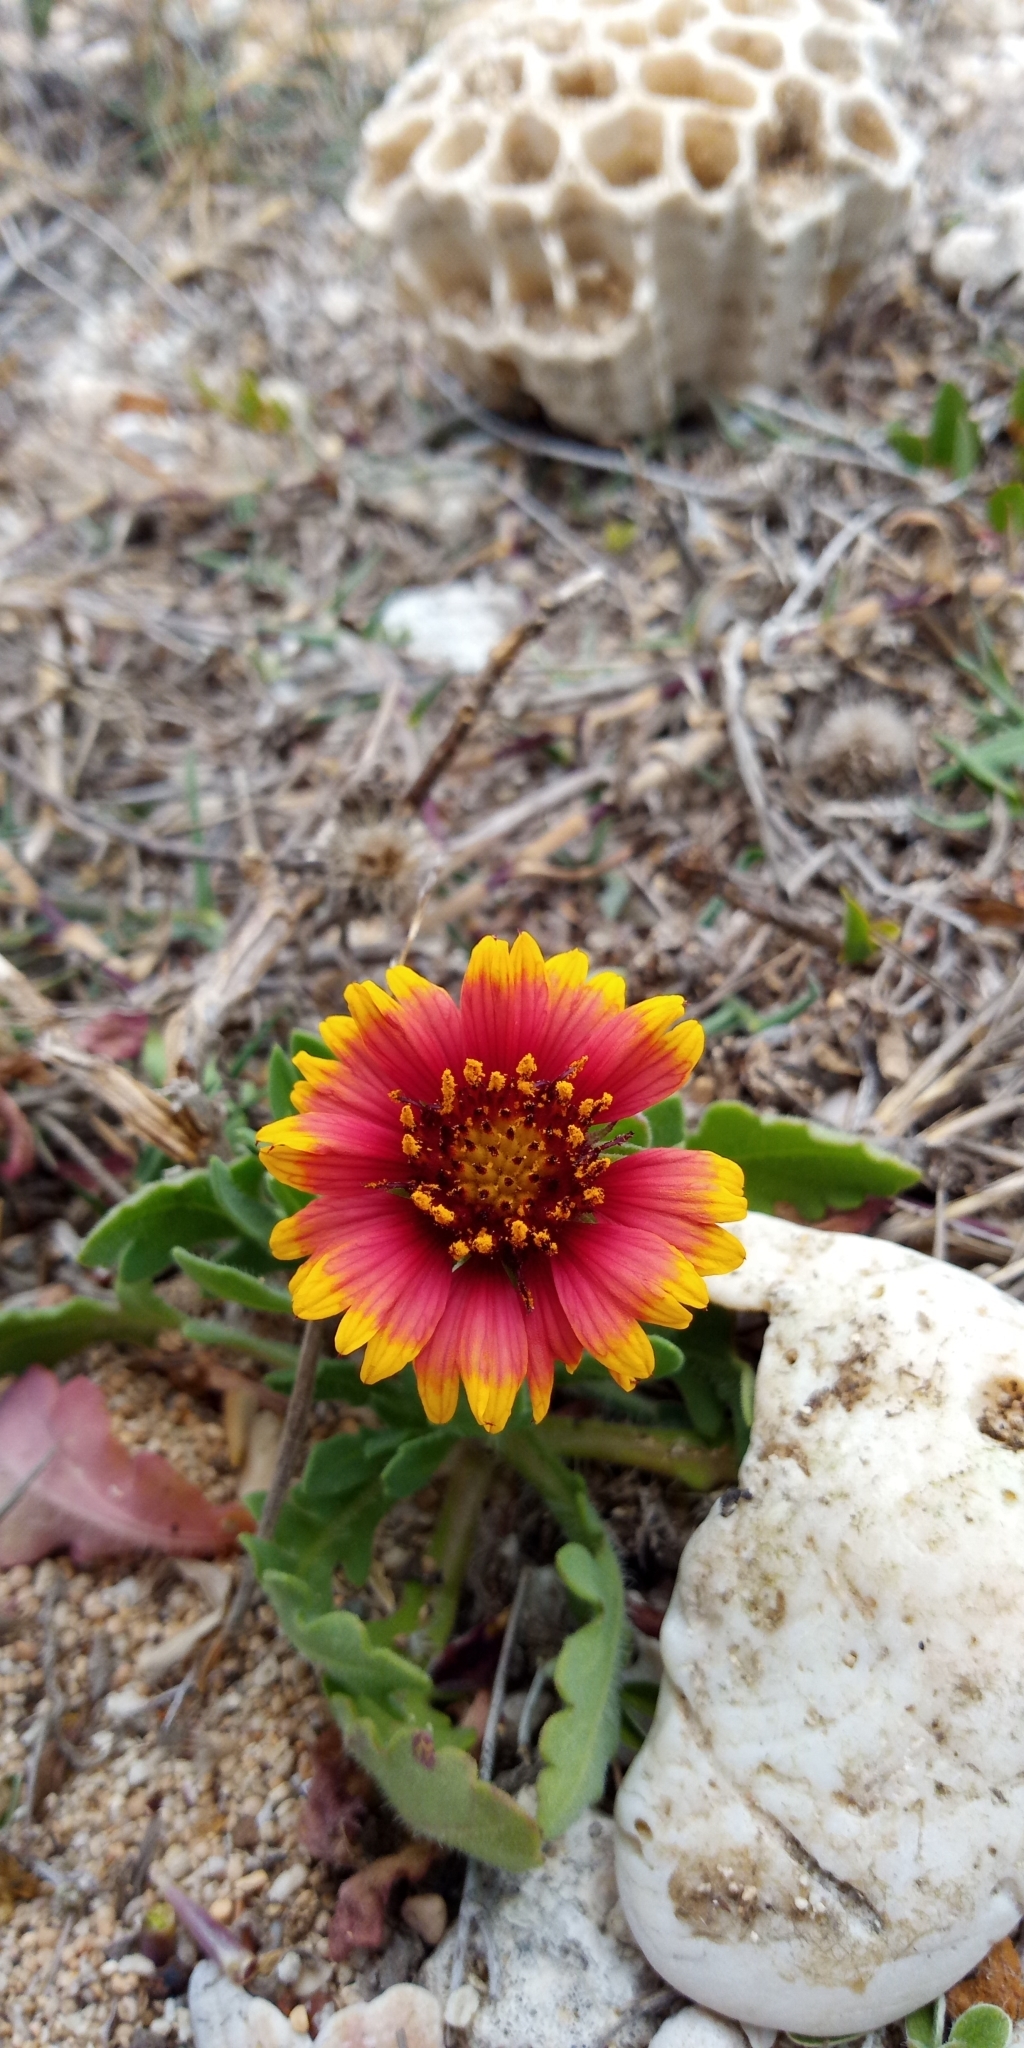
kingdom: Plantae
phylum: Tracheophyta
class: Magnoliopsida
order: Asterales
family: Asteraceae
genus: Gaillardia
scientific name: Gaillardia pulchella
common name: Firewheel
